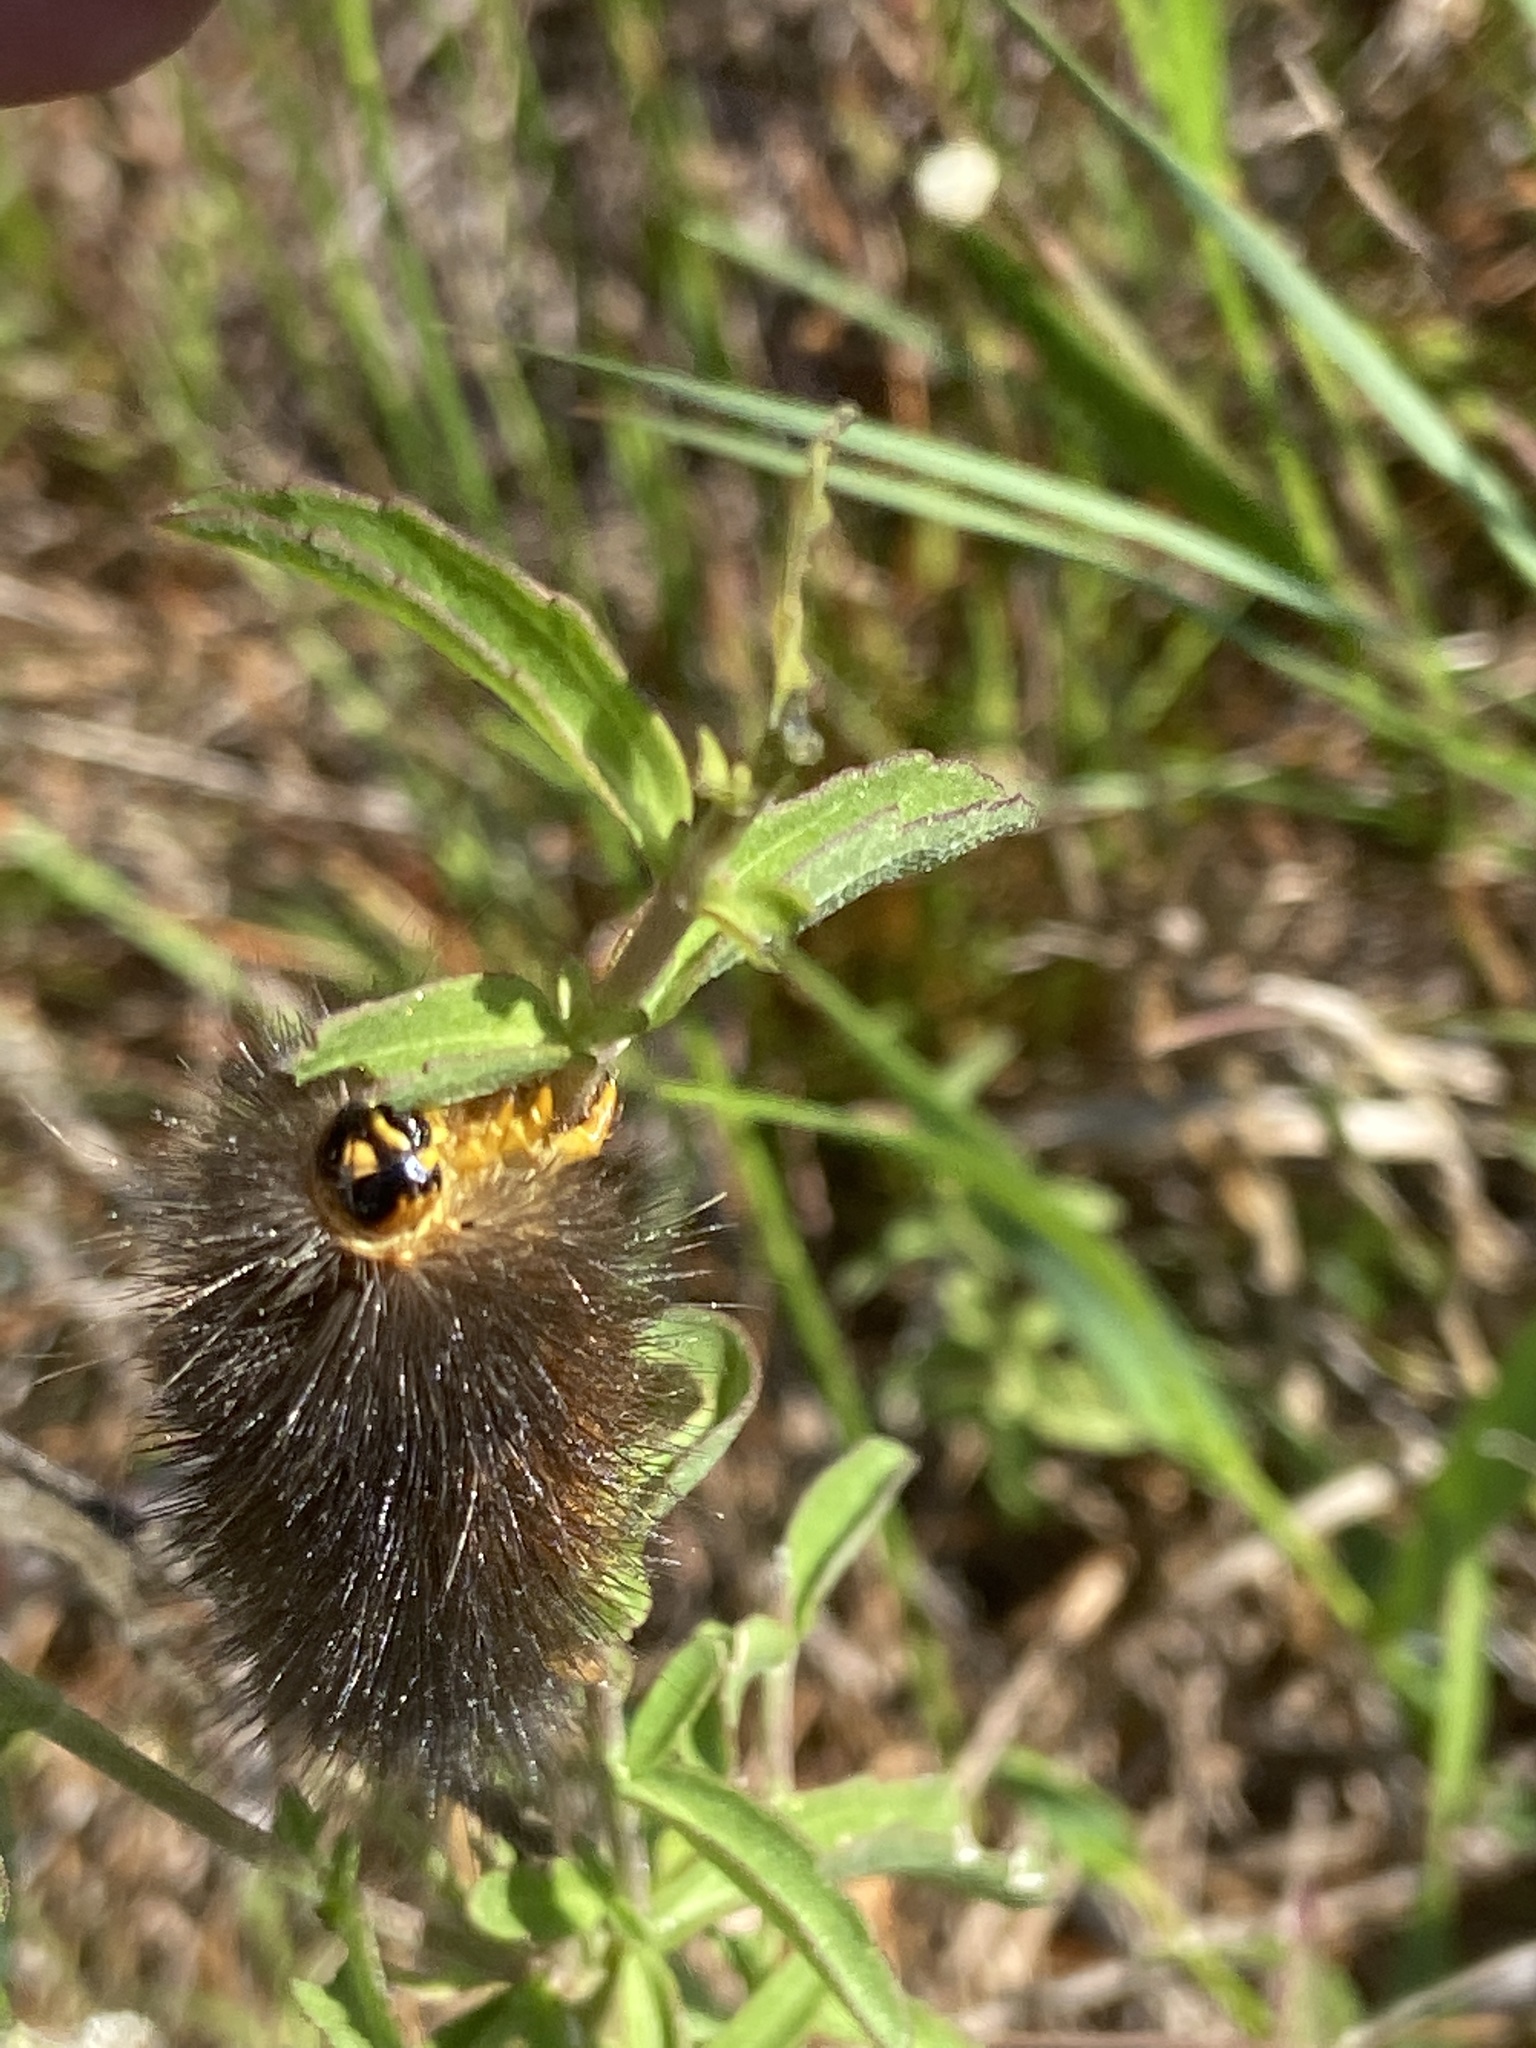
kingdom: Animalia
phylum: Arthropoda
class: Insecta
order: Lepidoptera
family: Erebidae
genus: Estigmene
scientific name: Estigmene acrea
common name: Salt marsh moth
